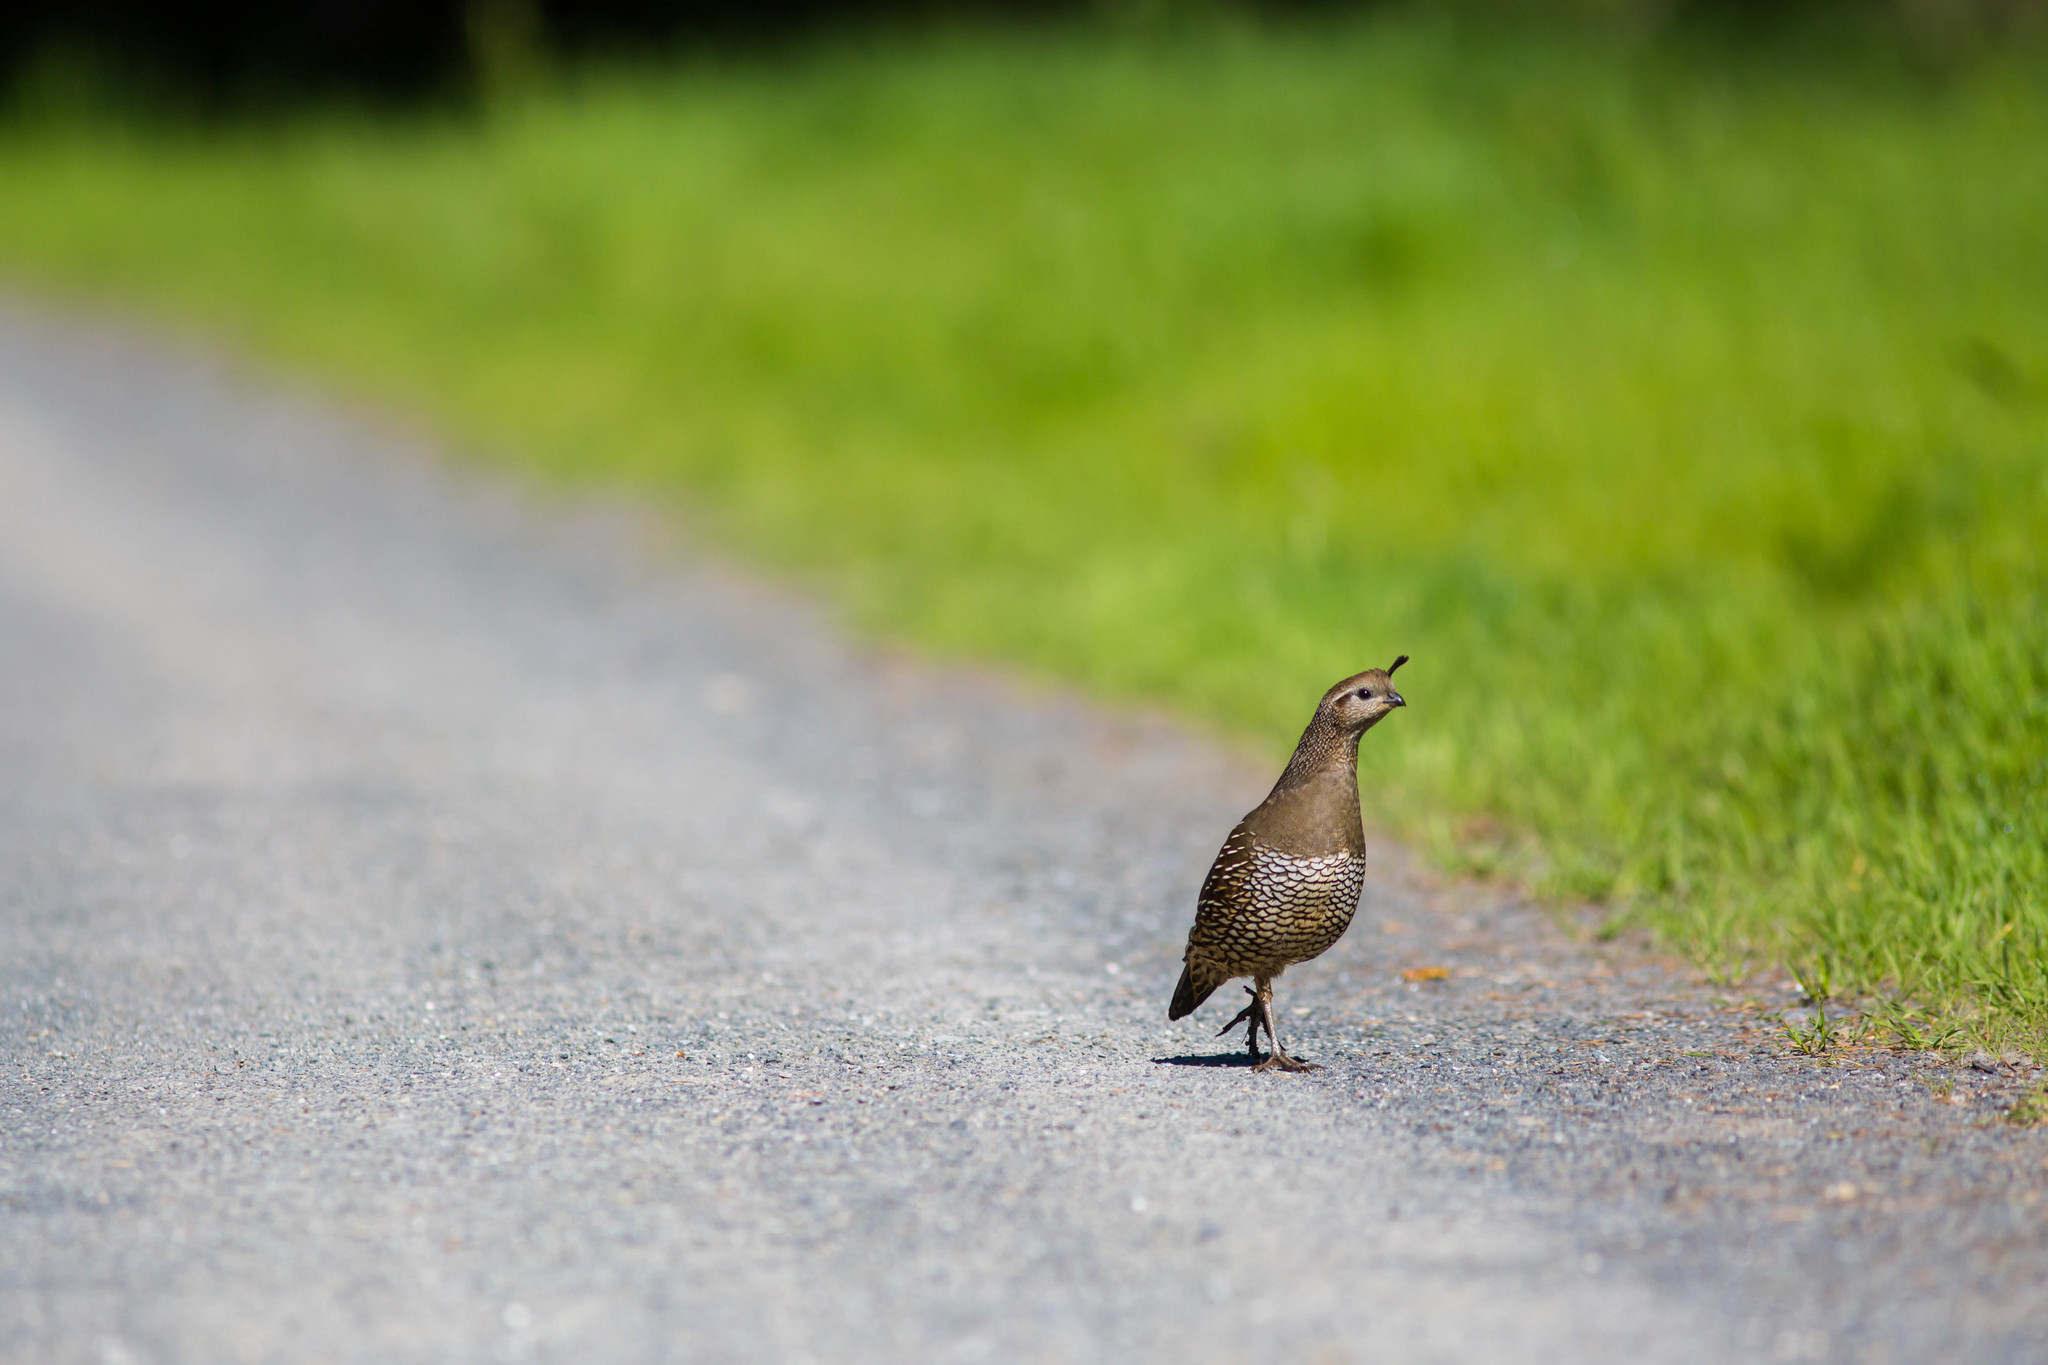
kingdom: Animalia
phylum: Chordata
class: Aves
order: Galliformes
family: Odontophoridae
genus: Callipepla
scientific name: Callipepla californica
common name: California quail
